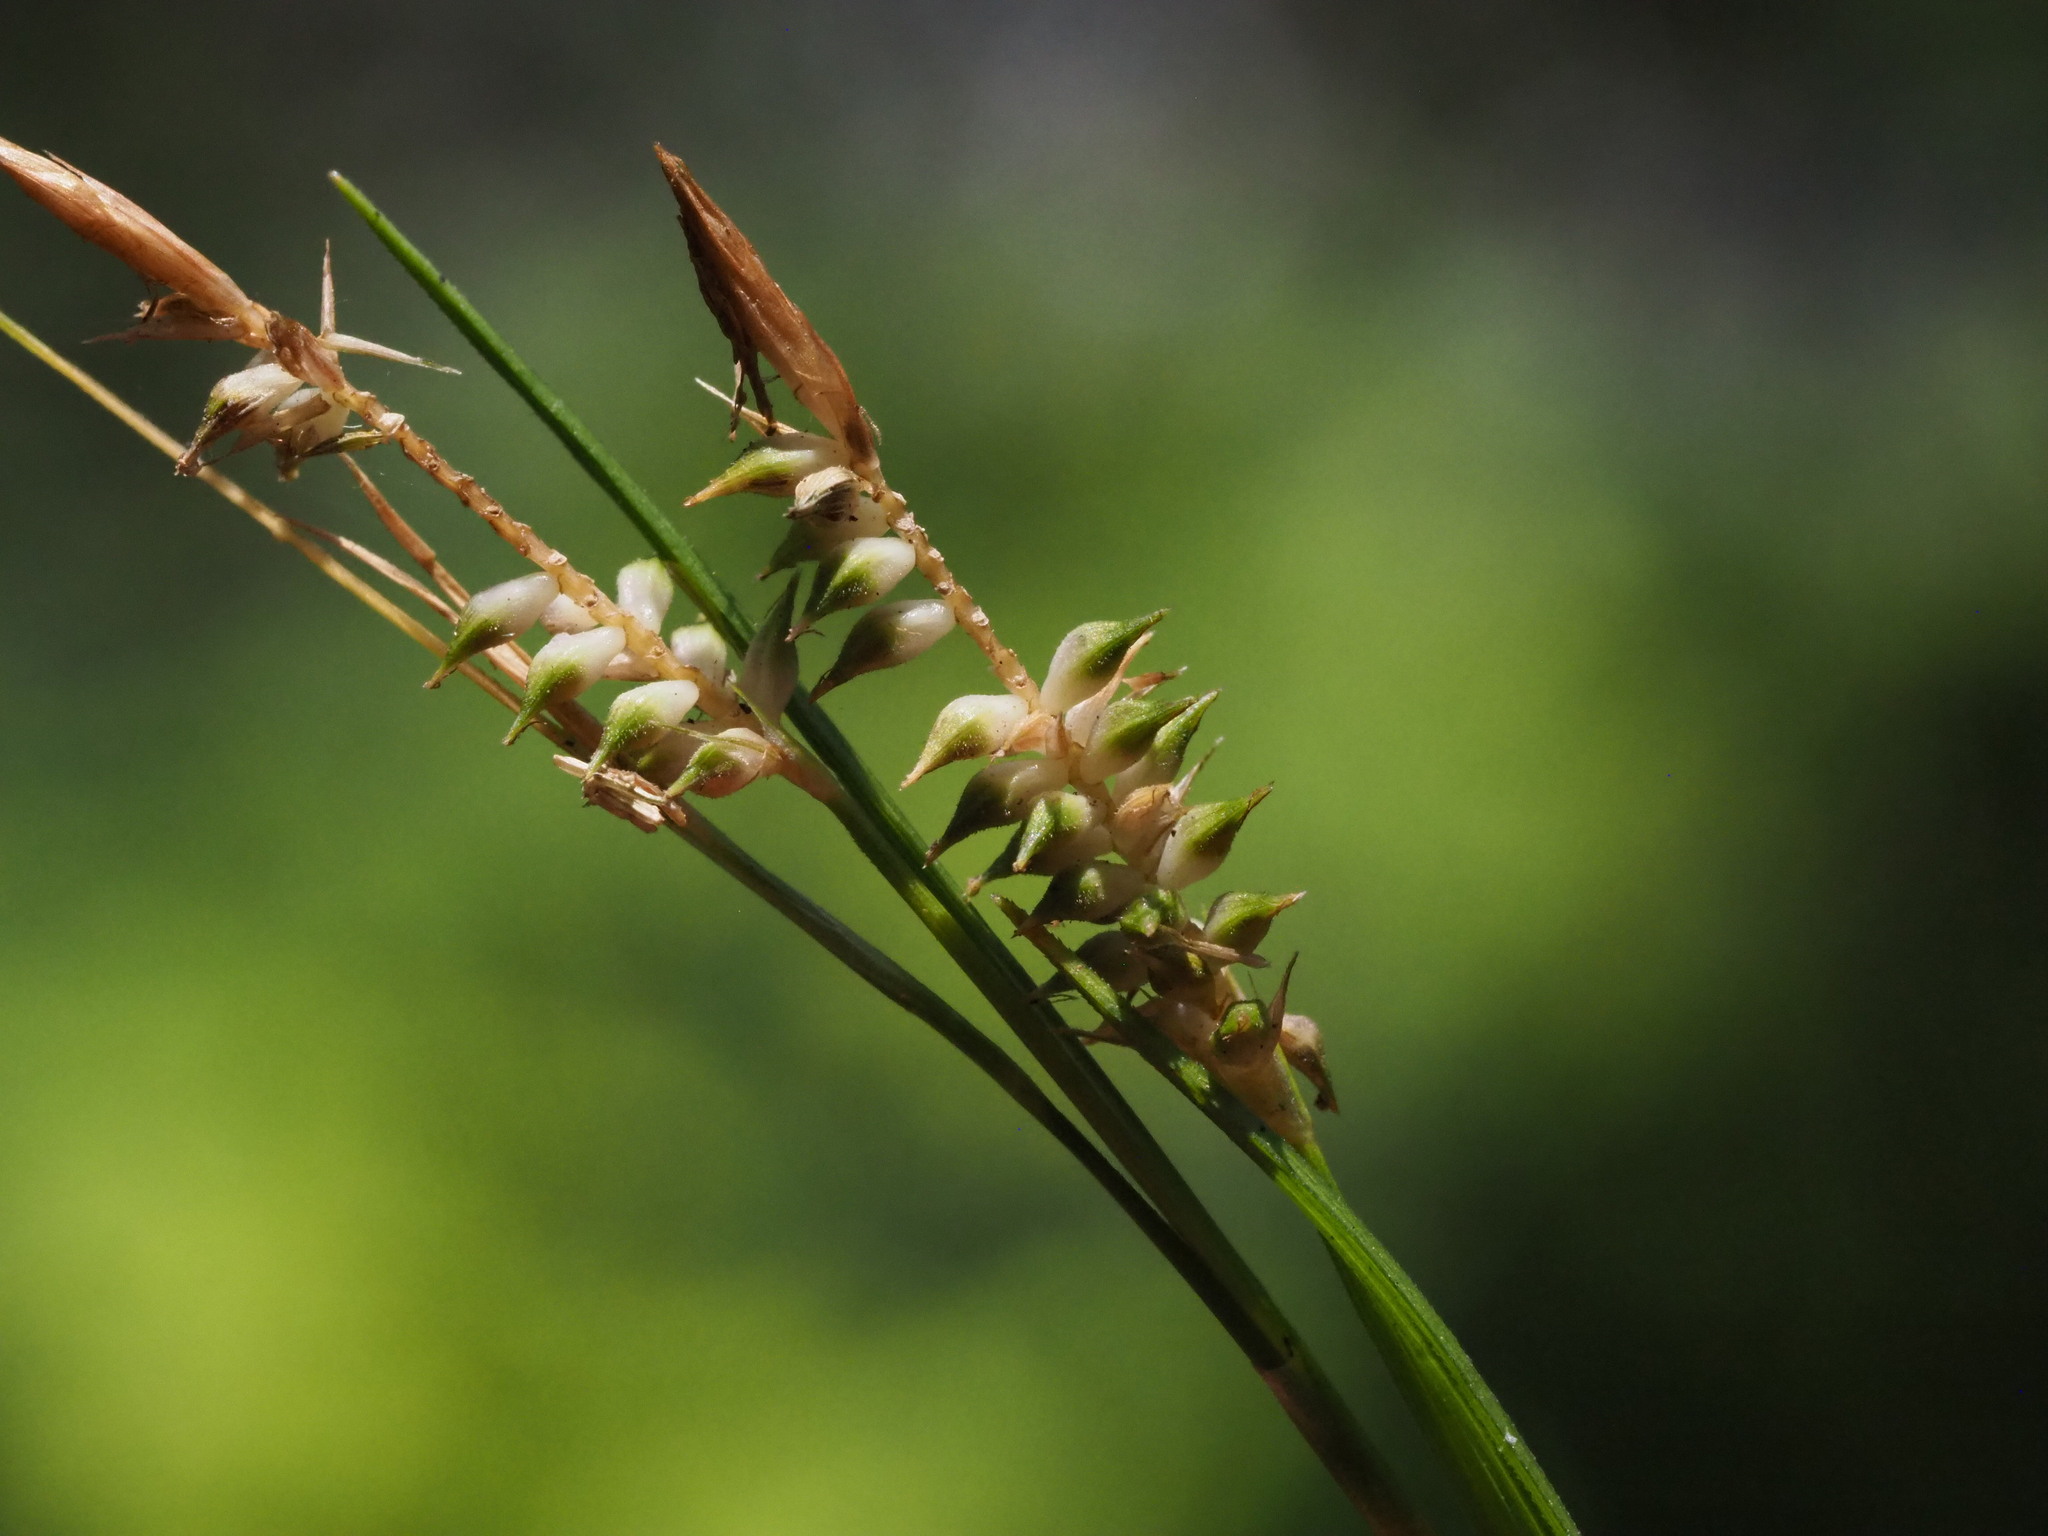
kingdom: Plantae
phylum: Tracheophyta
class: Liliopsida
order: Poales
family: Cyperaceae
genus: Carex
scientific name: Carex sociata
